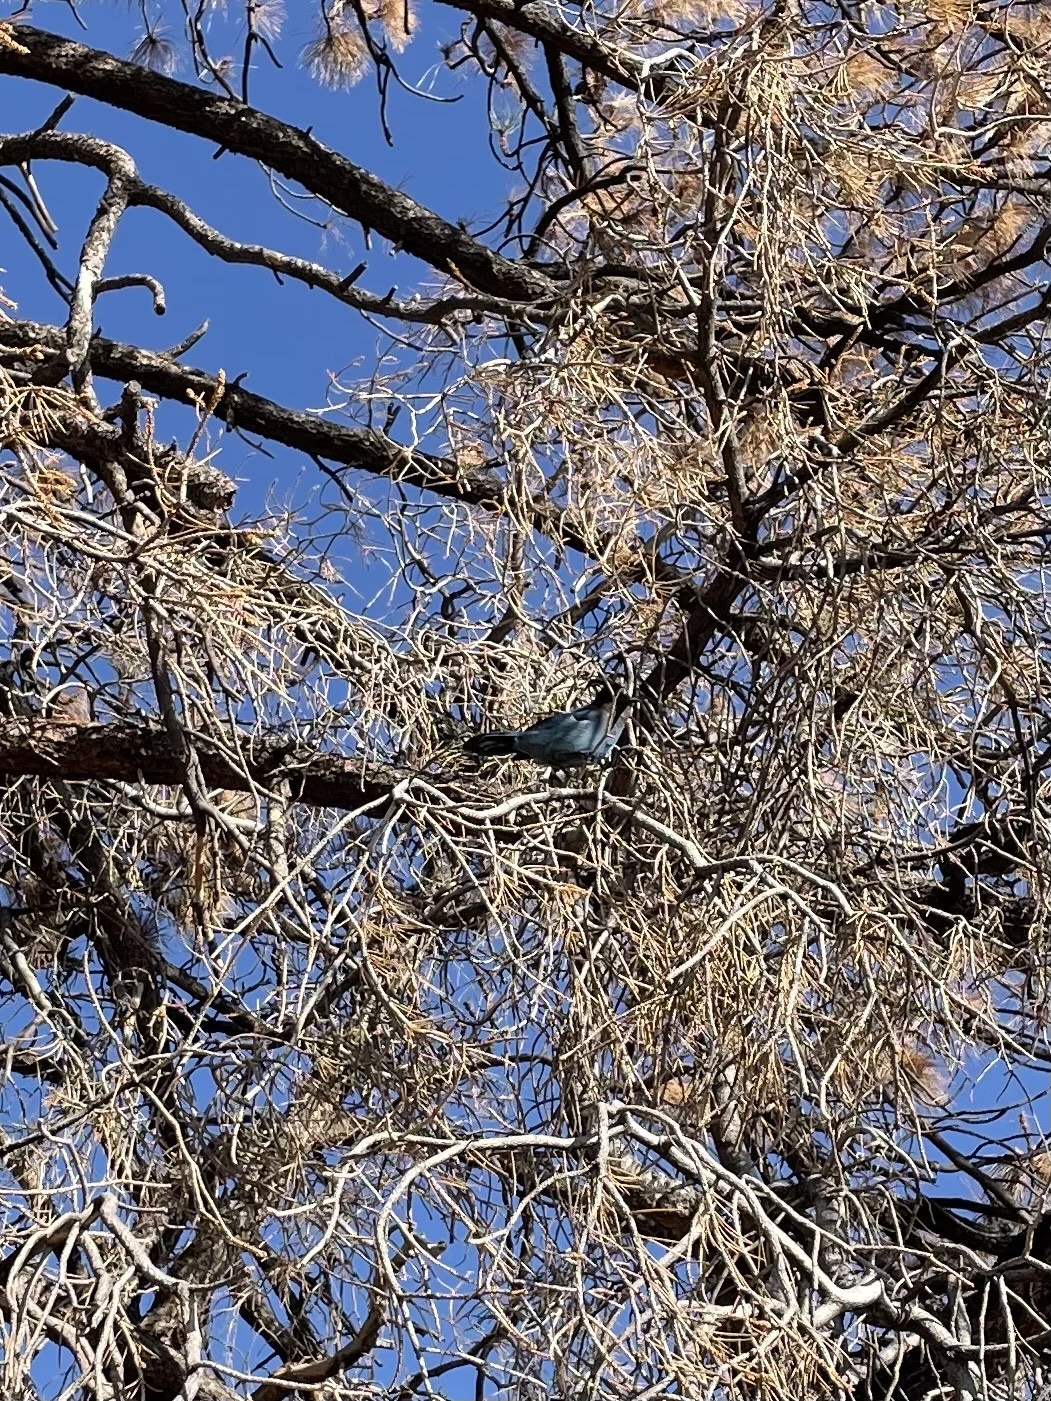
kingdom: Animalia
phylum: Chordata
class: Aves
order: Passeriformes
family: Corvidae
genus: Cyanocitta
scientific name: Cyanocitta stelleri
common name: Steller's jay
